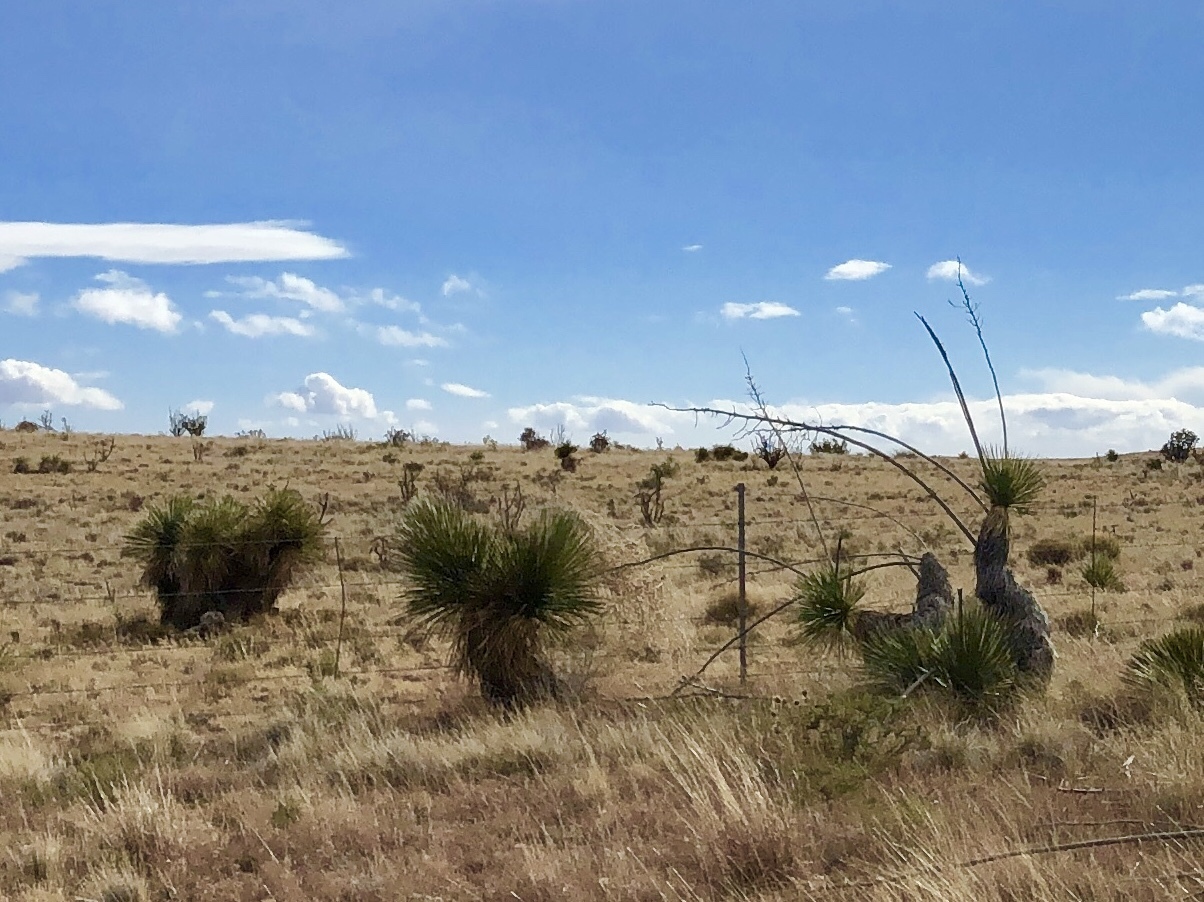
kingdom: Plantae
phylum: Tracheophyta
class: Liliopsida
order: Asparagales
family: Asparagaceae
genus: Yucca
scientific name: Yucca elata
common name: Palmella
